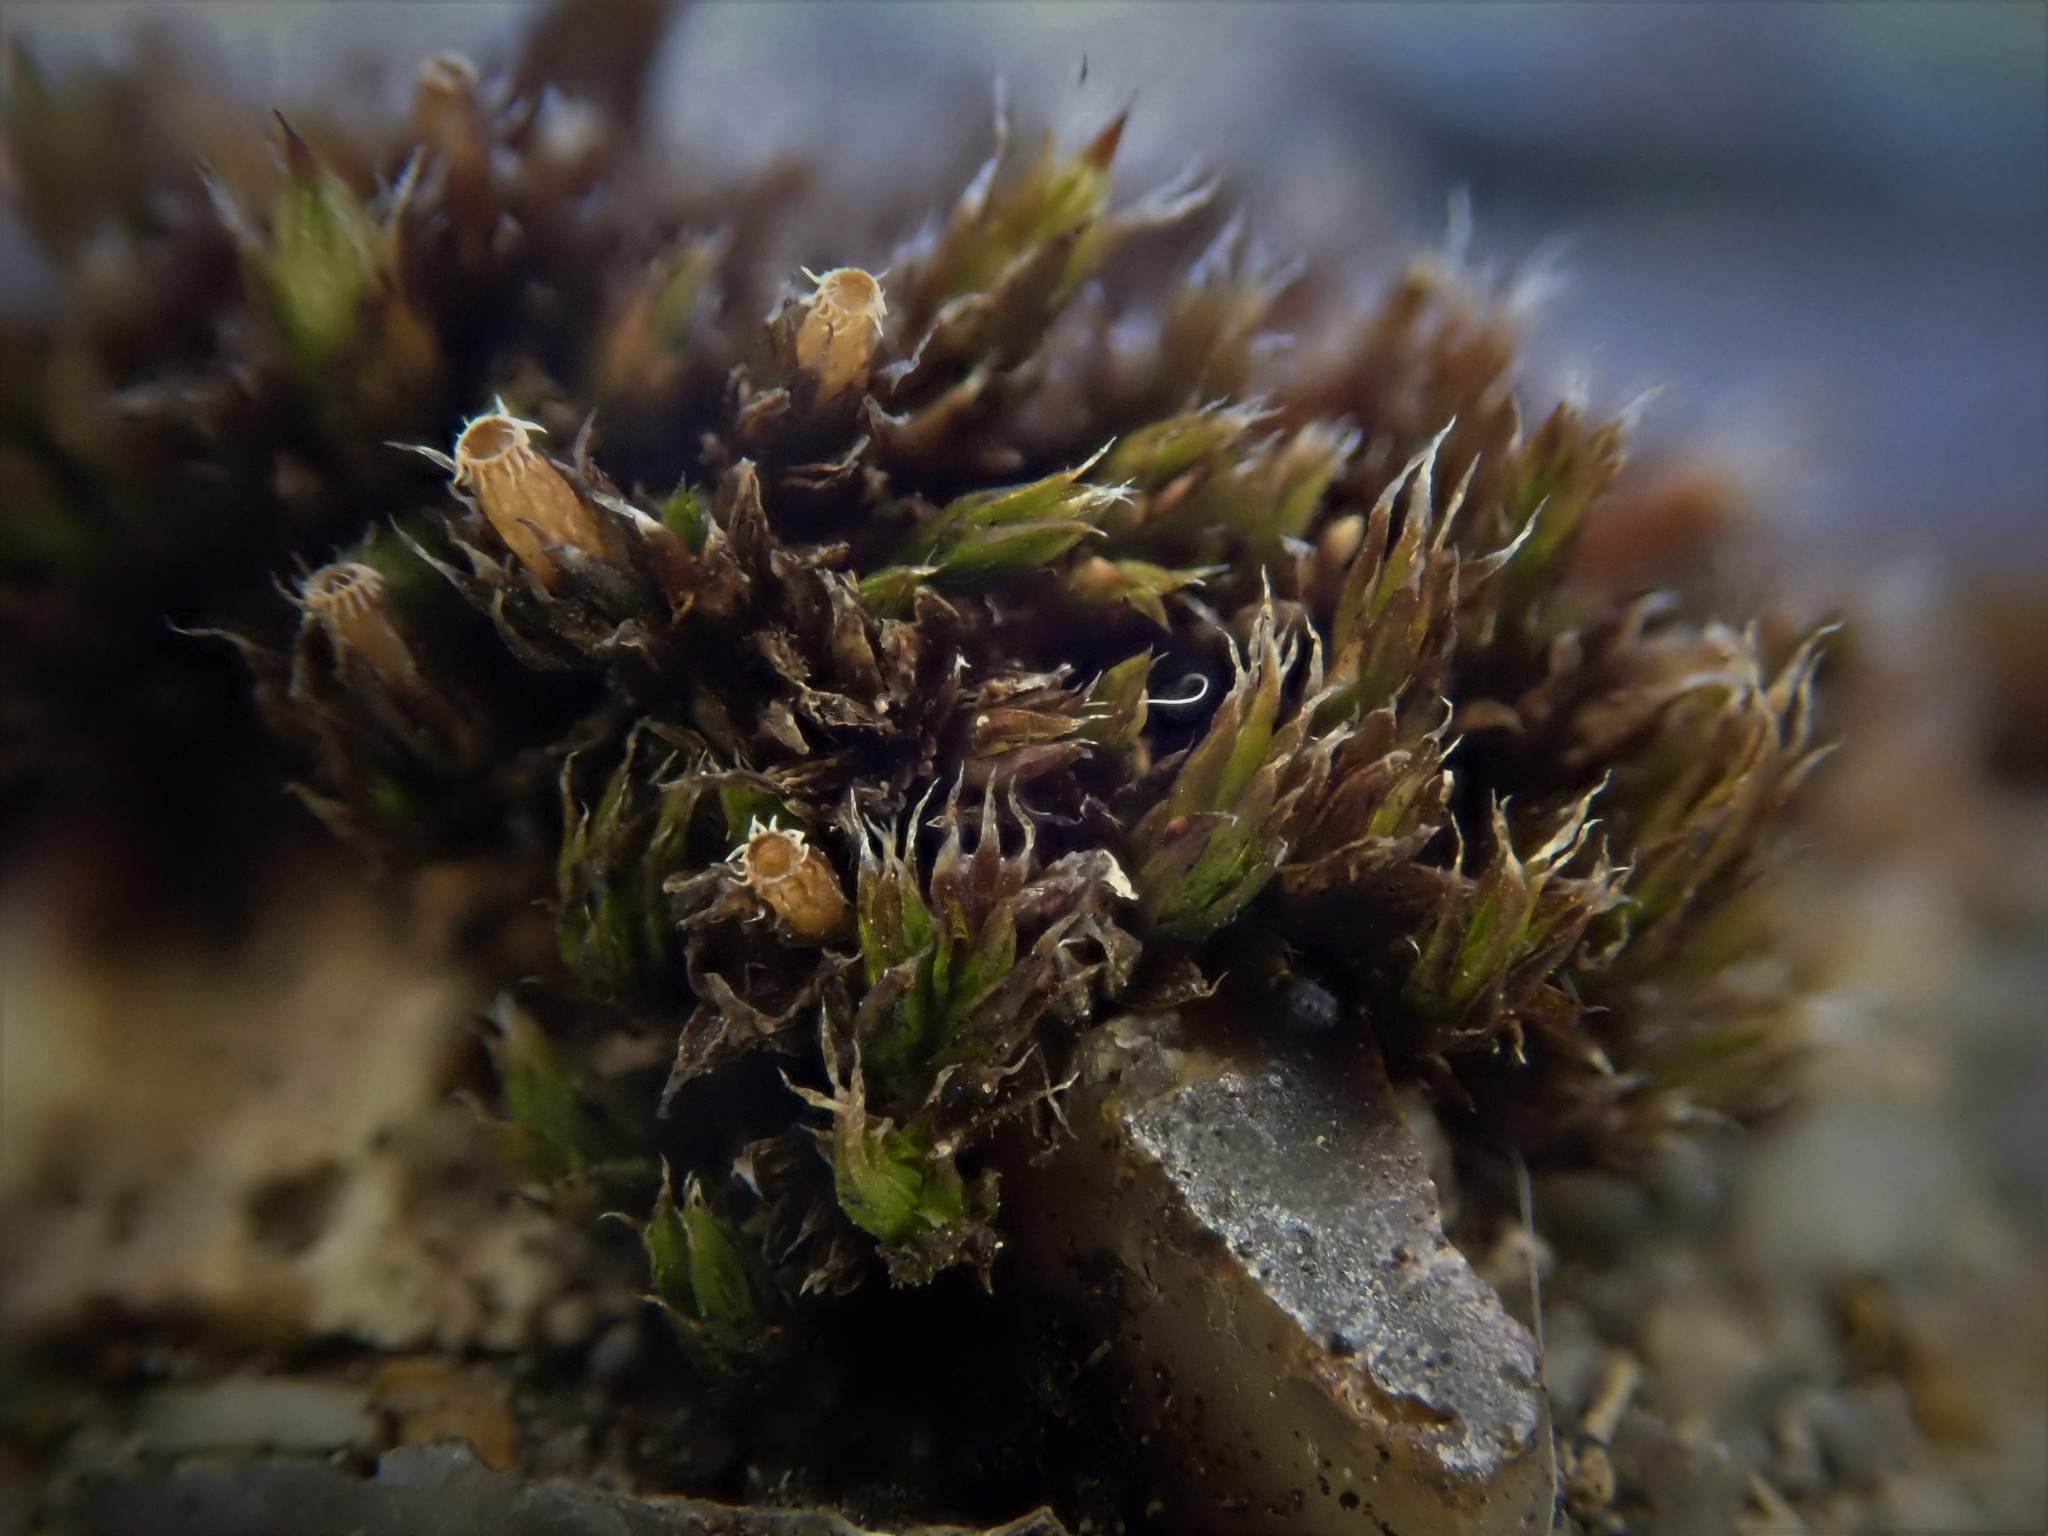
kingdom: Plantae
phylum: Bryophyta
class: Bryopsida
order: Orthotrichales
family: Orthotrichaceae
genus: Orthotrichum
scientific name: Orthotrichum diaphanum
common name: White-tipped bristle-moss
